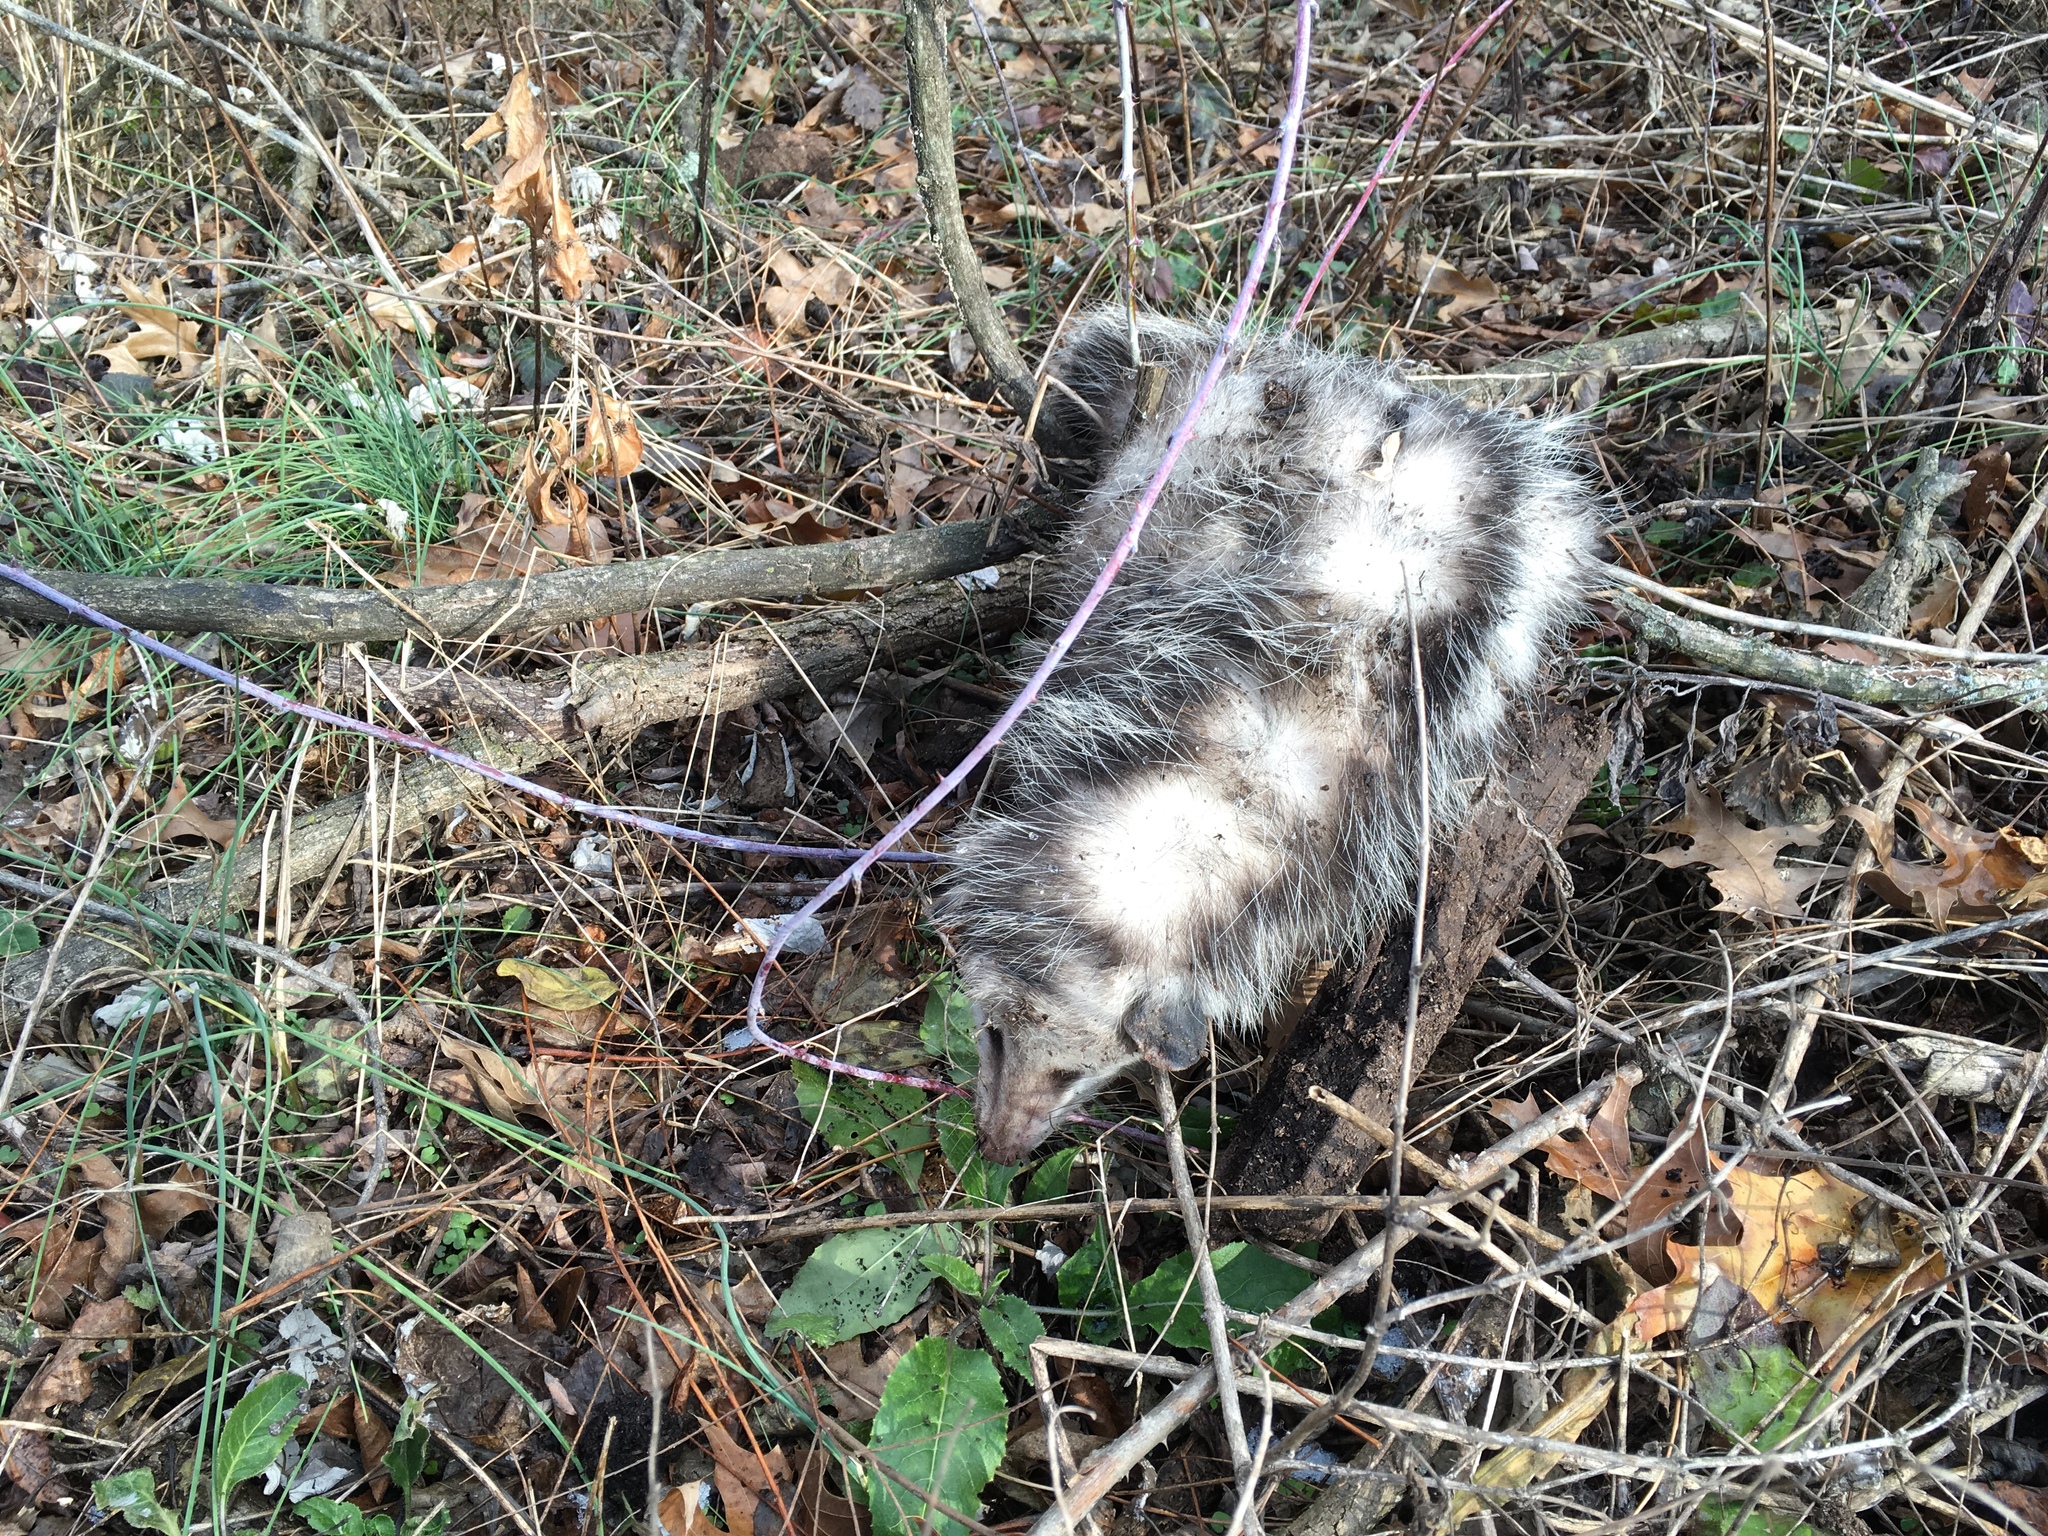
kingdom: Animalia
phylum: Chordata
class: Mammalia
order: Didelphimorphia
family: Didelphidae
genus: Didelphis
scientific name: Didelphis virginiana
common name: Virginia opossum
